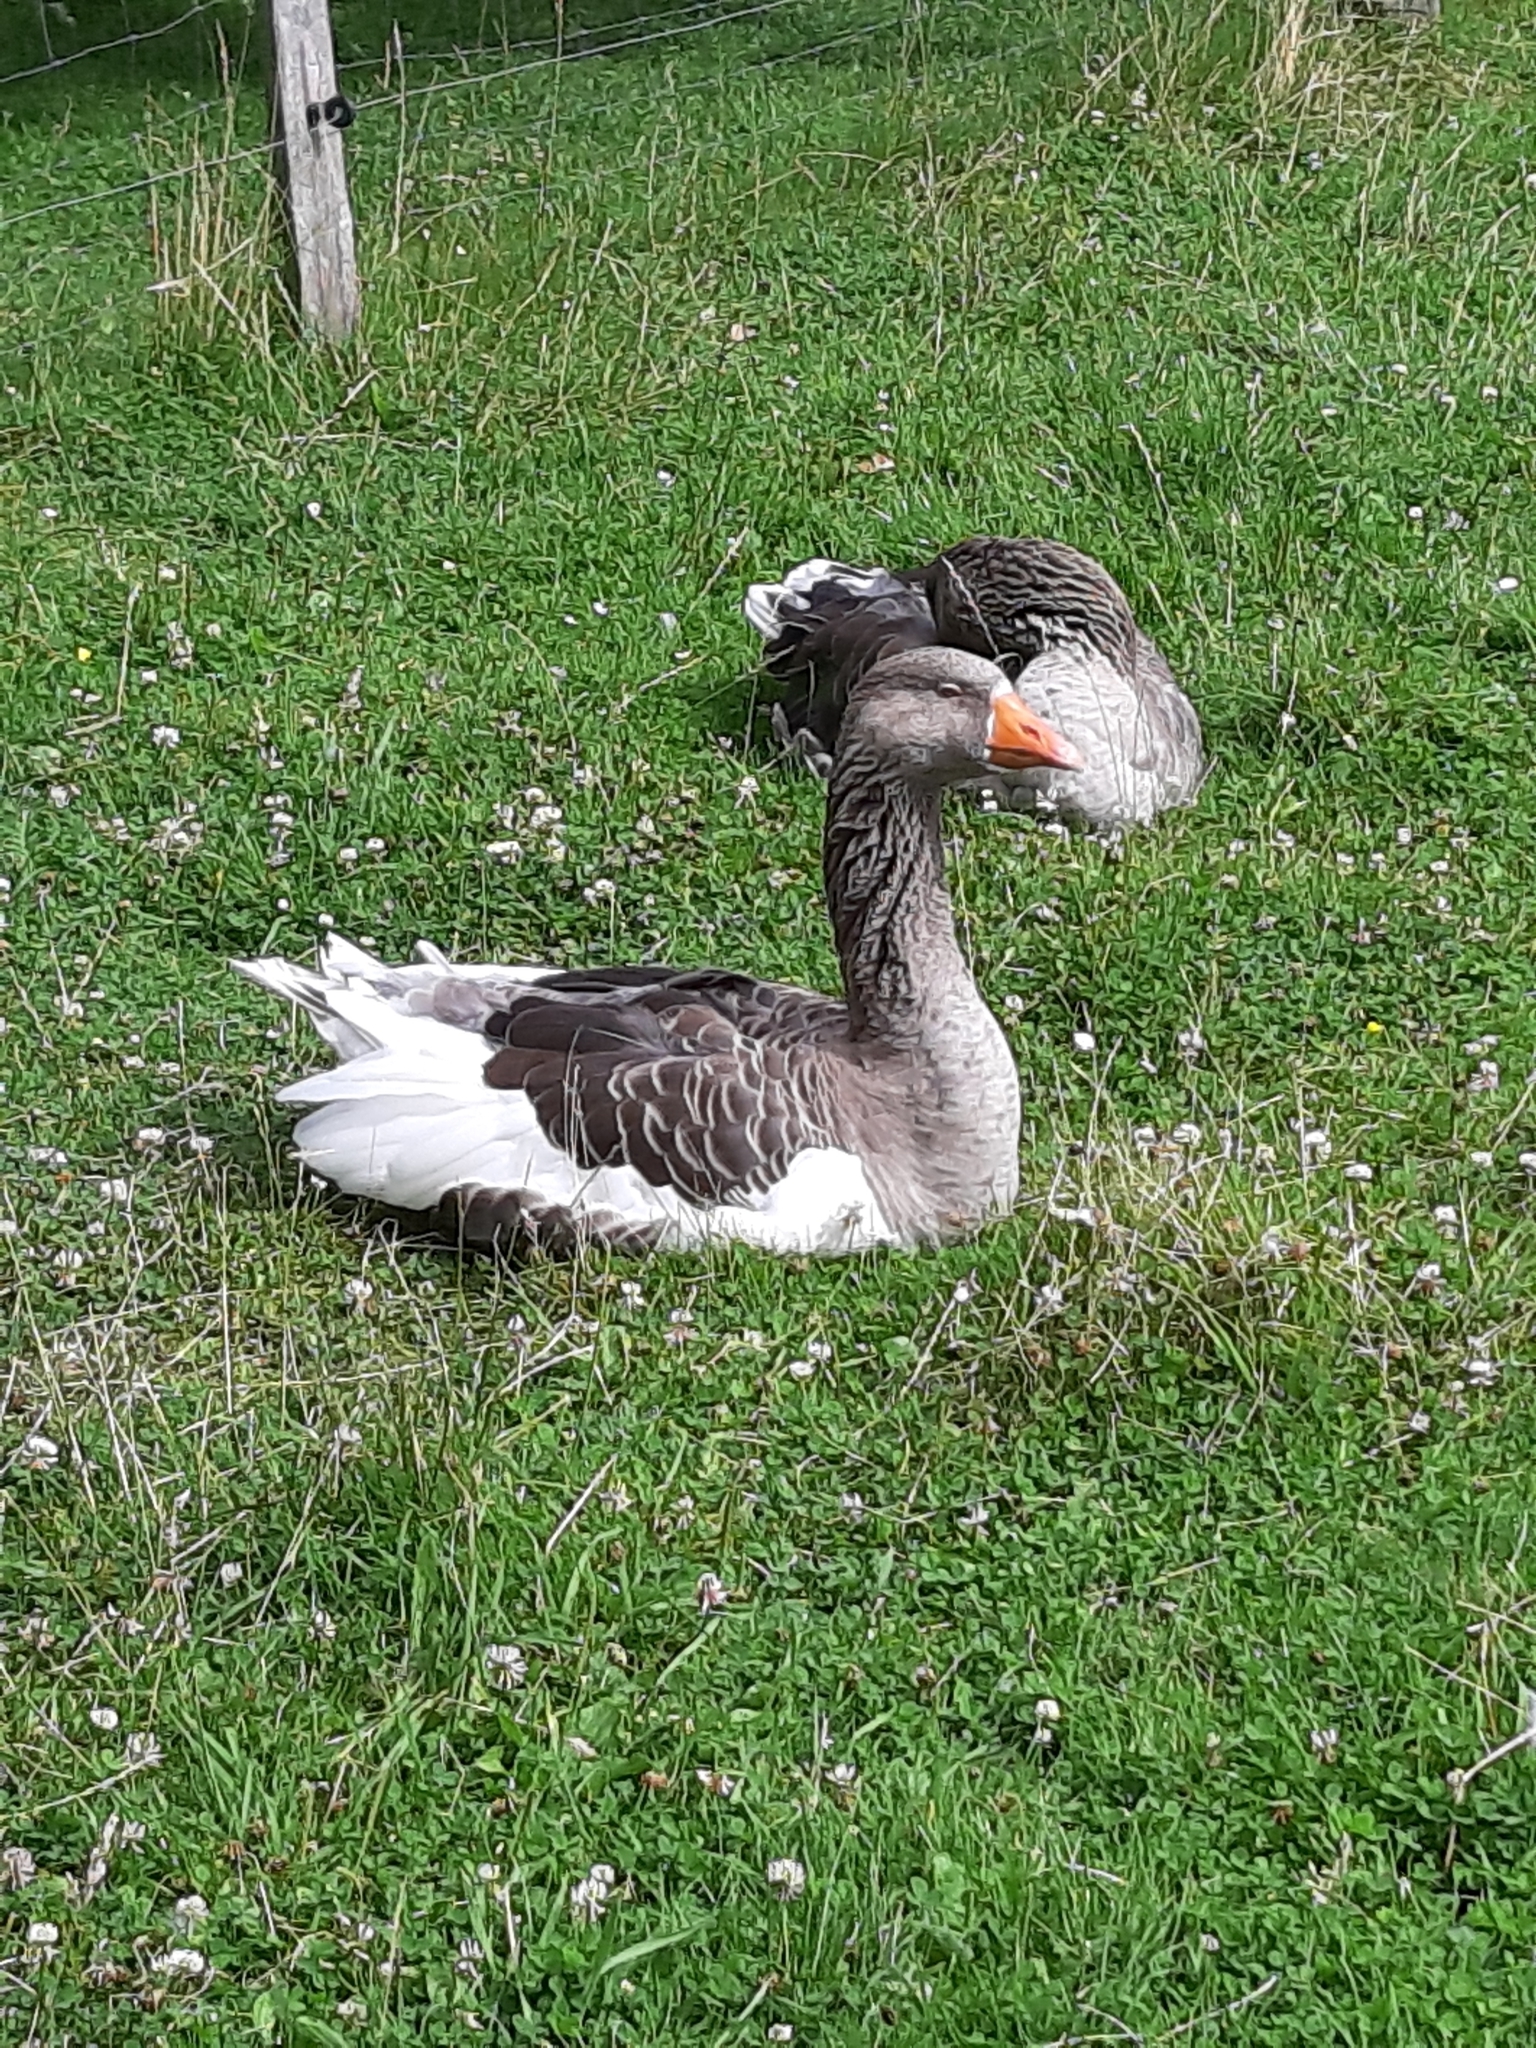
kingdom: Animalia
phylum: Chordata
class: Aves
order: Anseriformes
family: Anatidae
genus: Anser
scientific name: Anser anser
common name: Greylag goose
